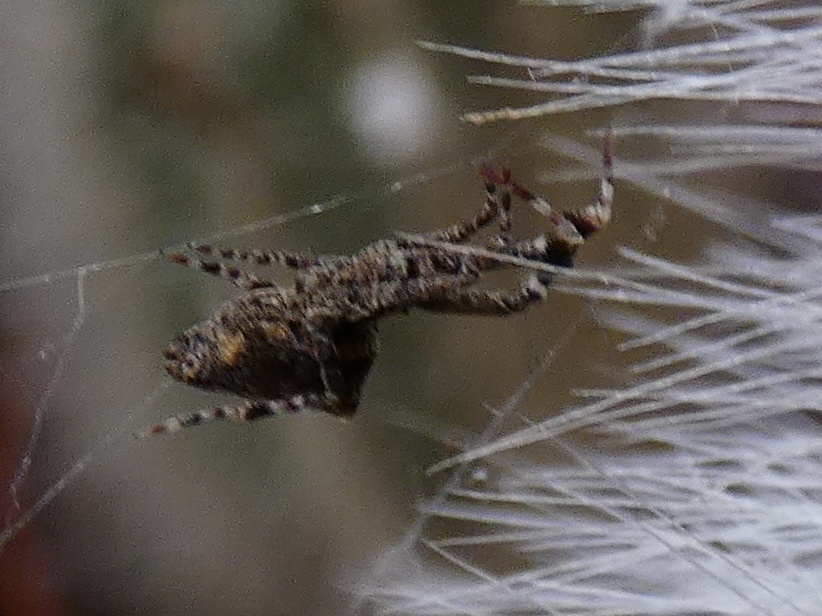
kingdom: Animalia
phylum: Arthropoda
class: Arachnida
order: Araneae
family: Uloboridae
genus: Uloborus
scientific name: Uloborus plumipes
